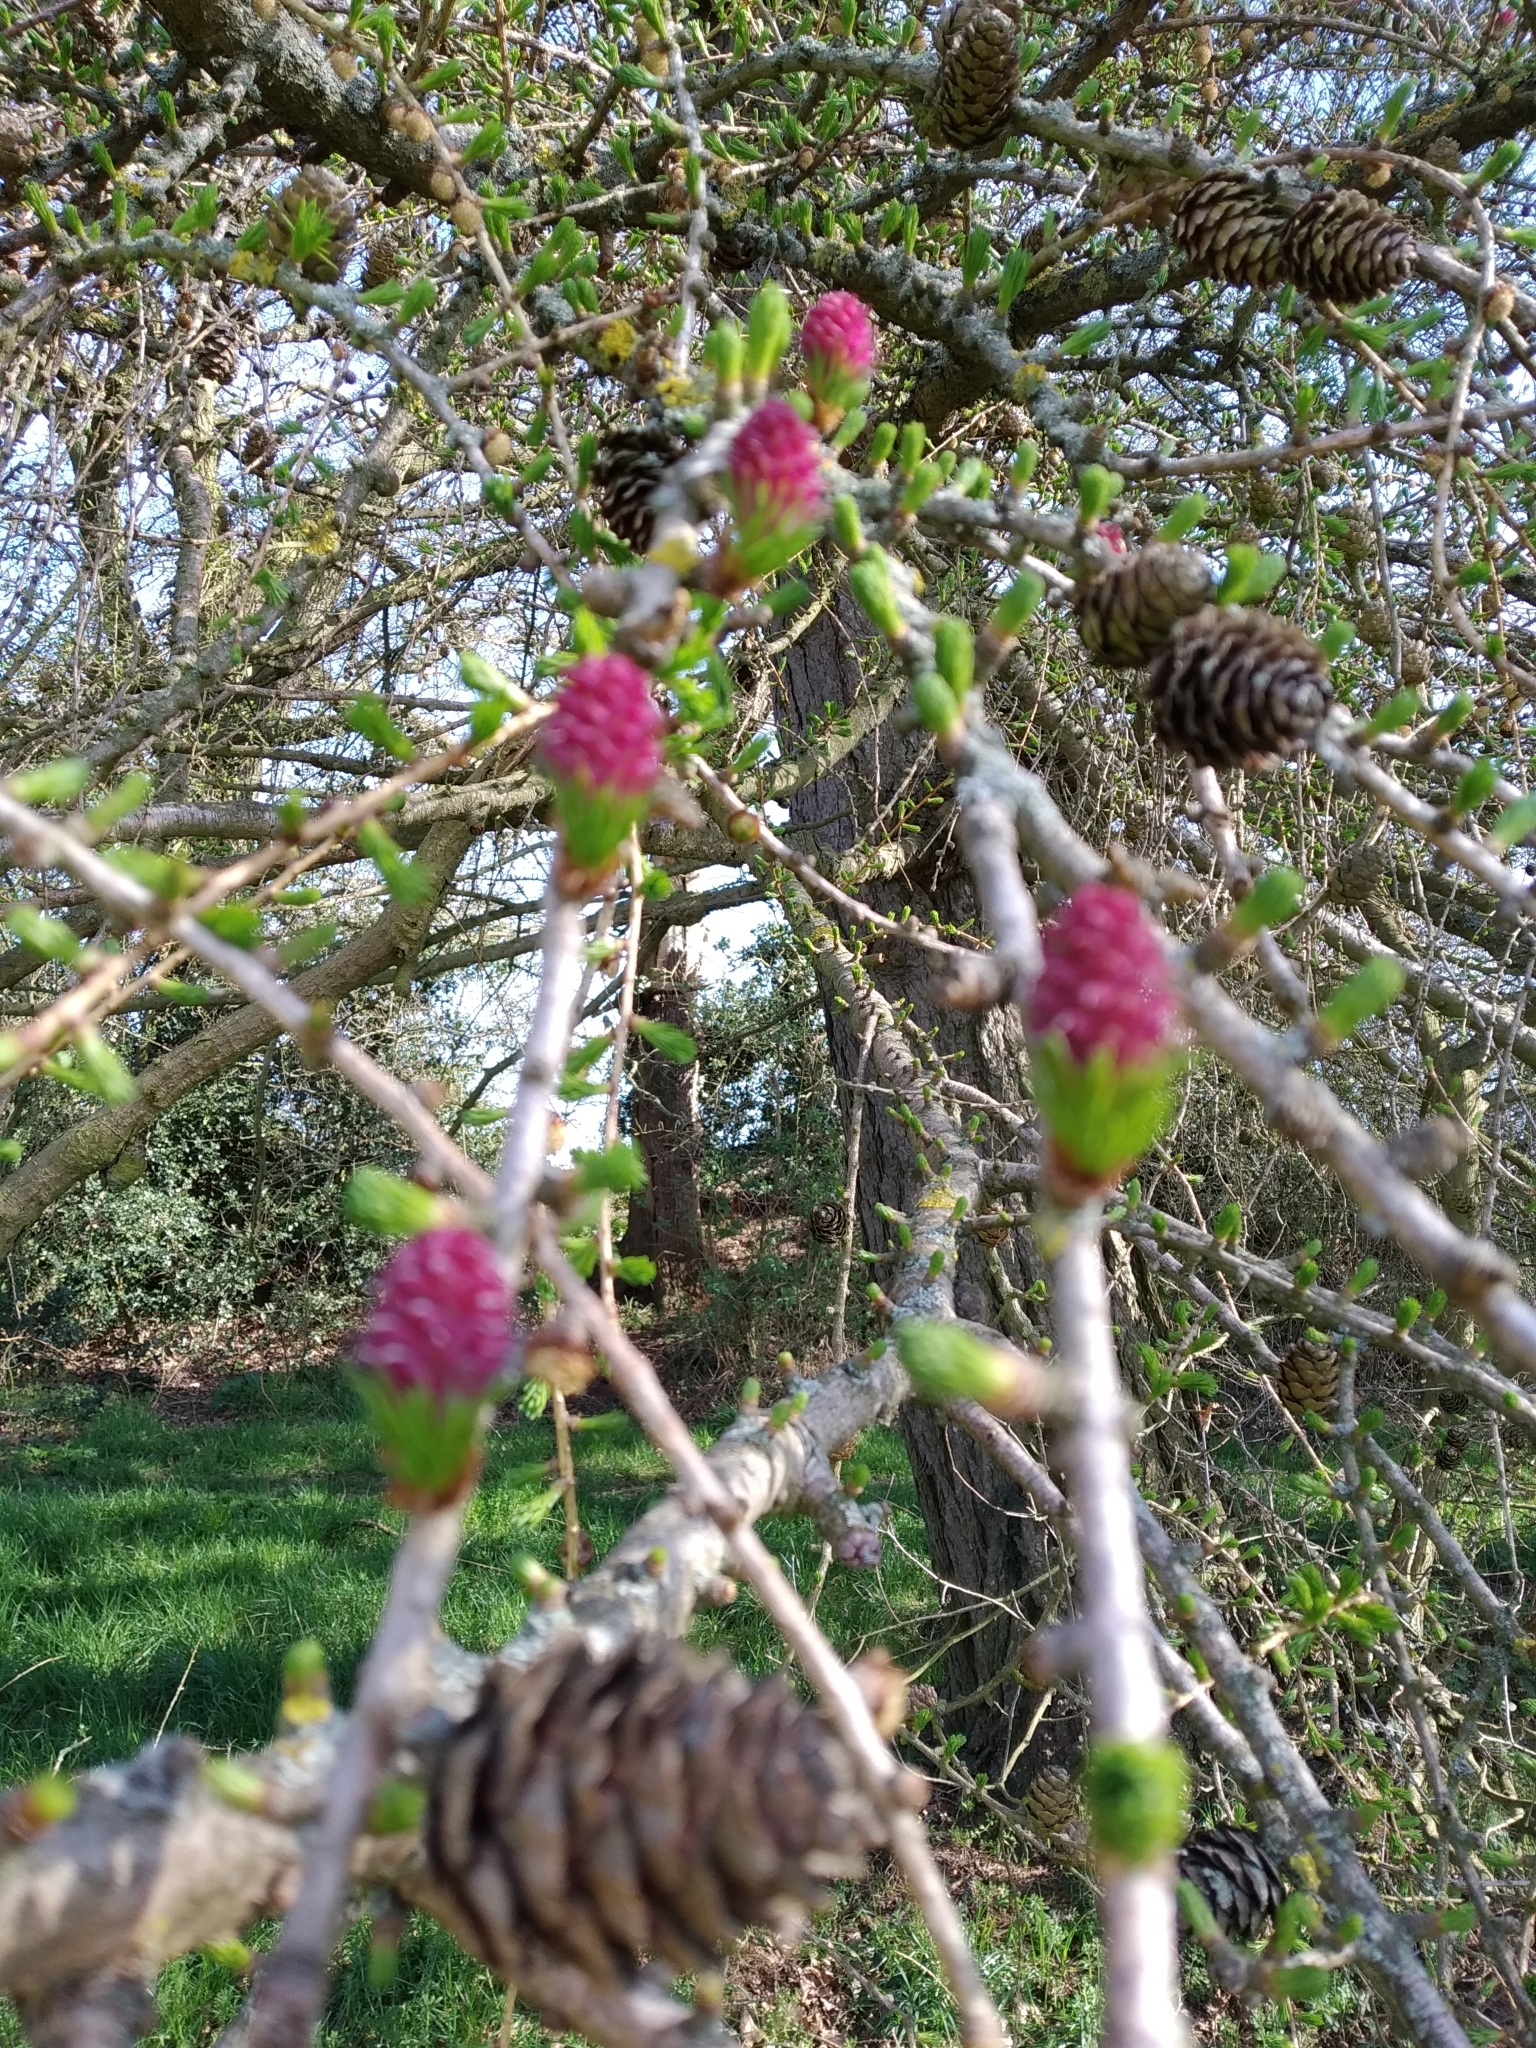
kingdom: Plantae
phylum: Tracheophyta
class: Pinopsida
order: Pinales
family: Pinaceae
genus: Larix
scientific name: Larix decidua
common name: European larch
